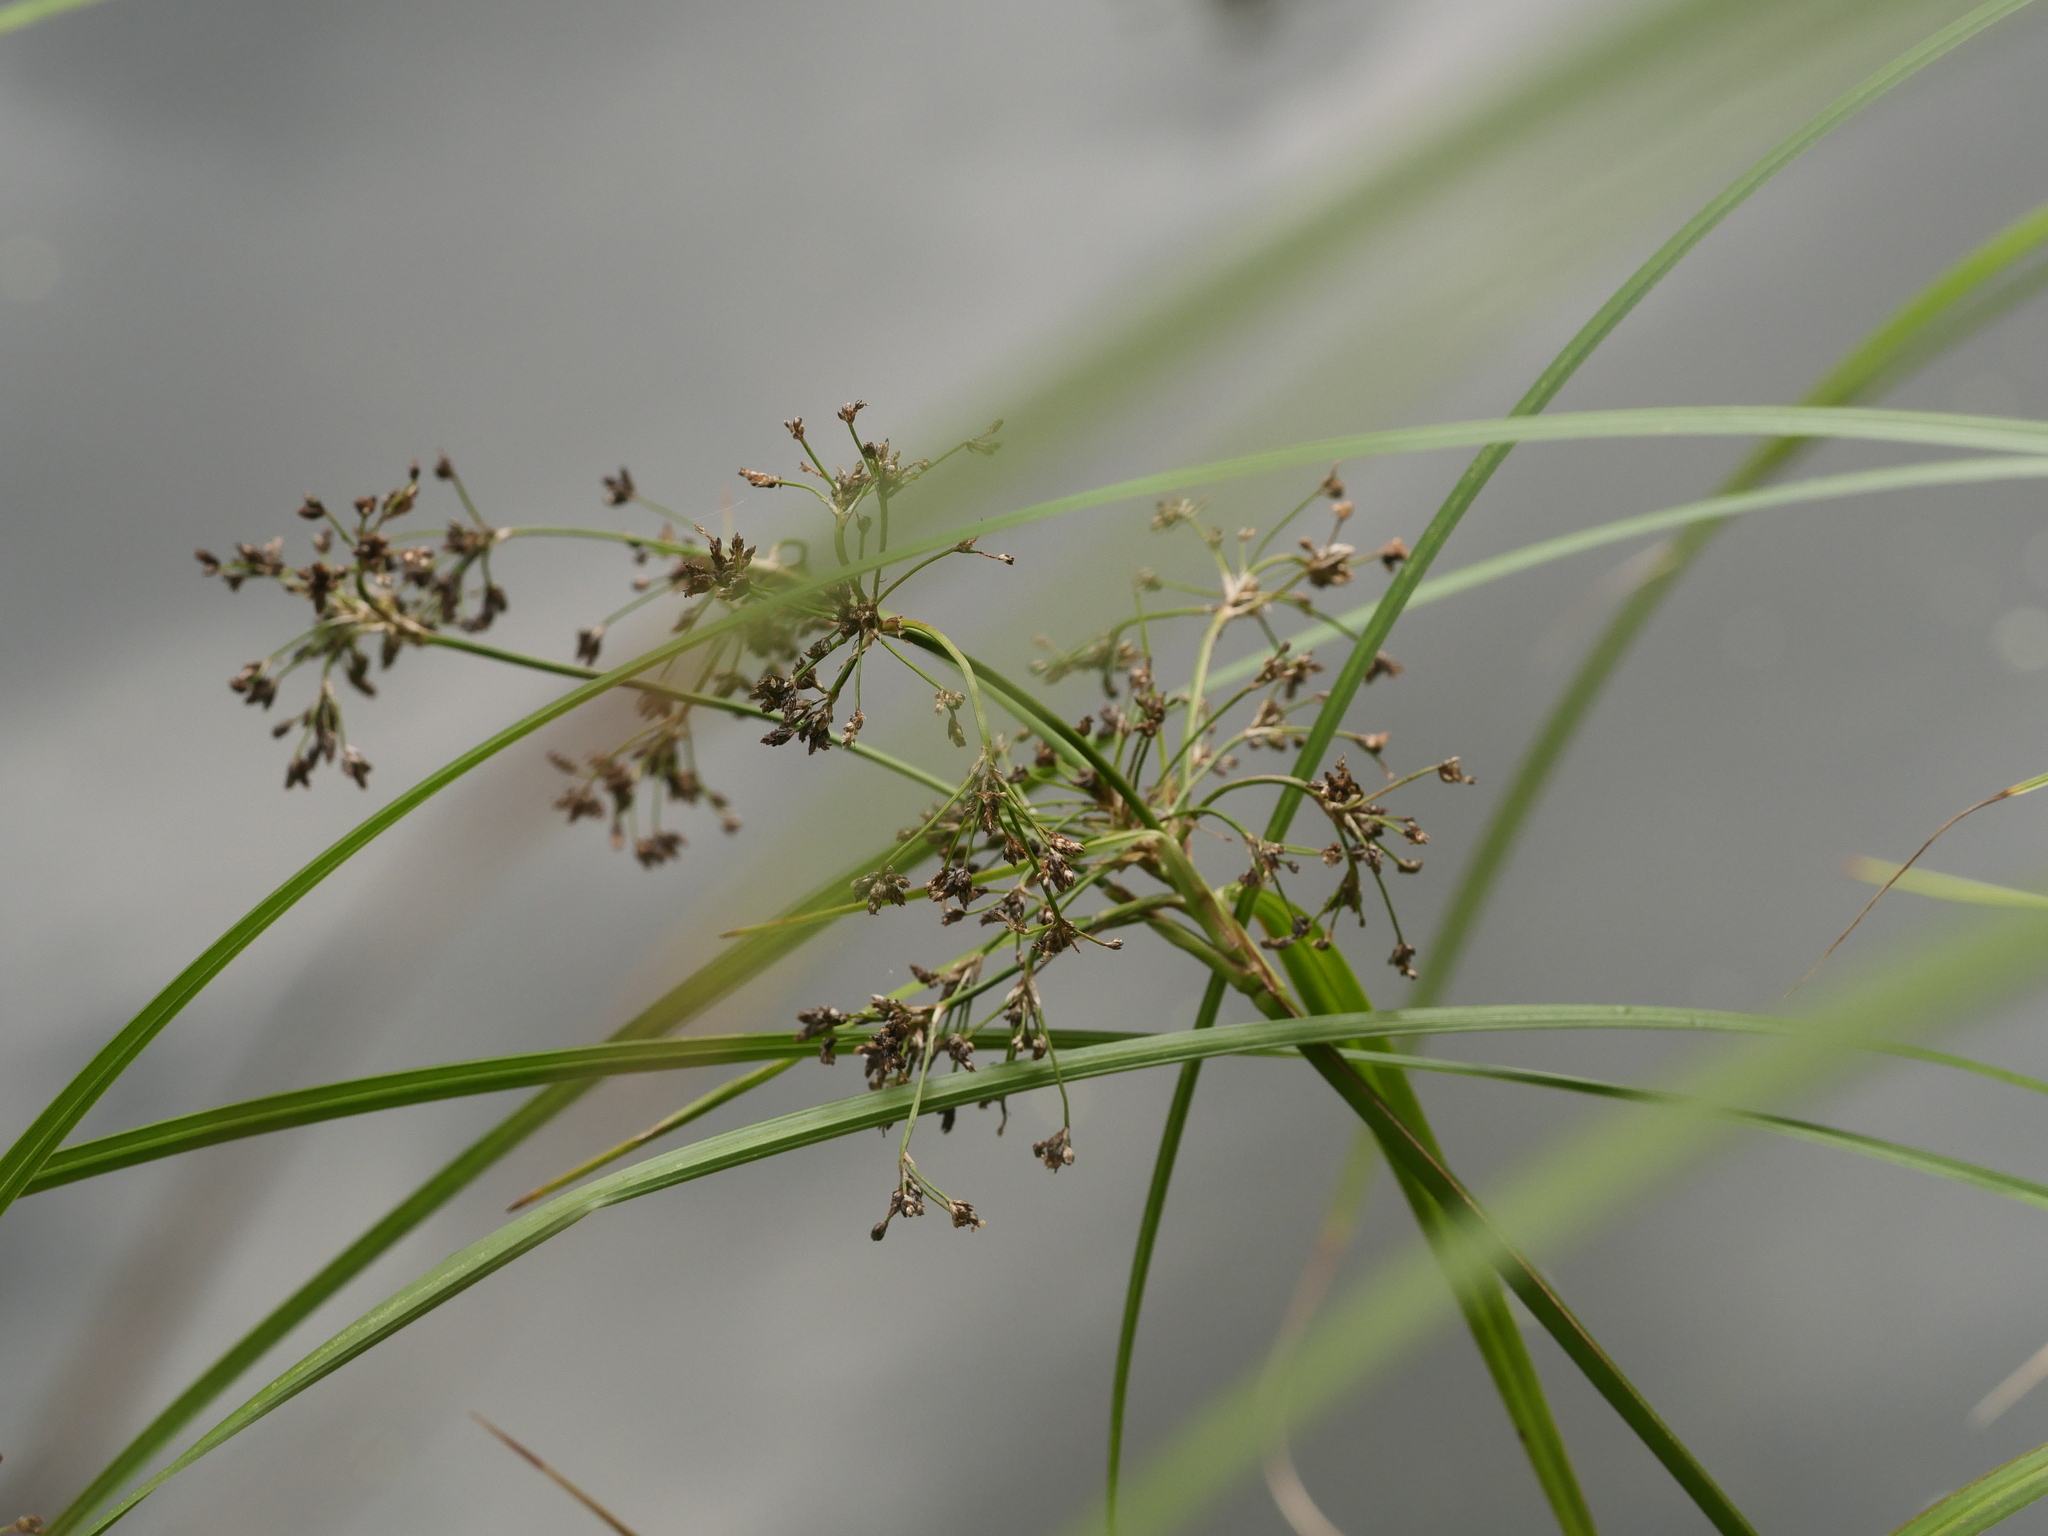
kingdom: Plantae
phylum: Tracheophyta
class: Liliopsida
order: Poales
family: Cyperaceae
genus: Scirpus
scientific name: Scirpus sylvaticus
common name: Wood club-rush
